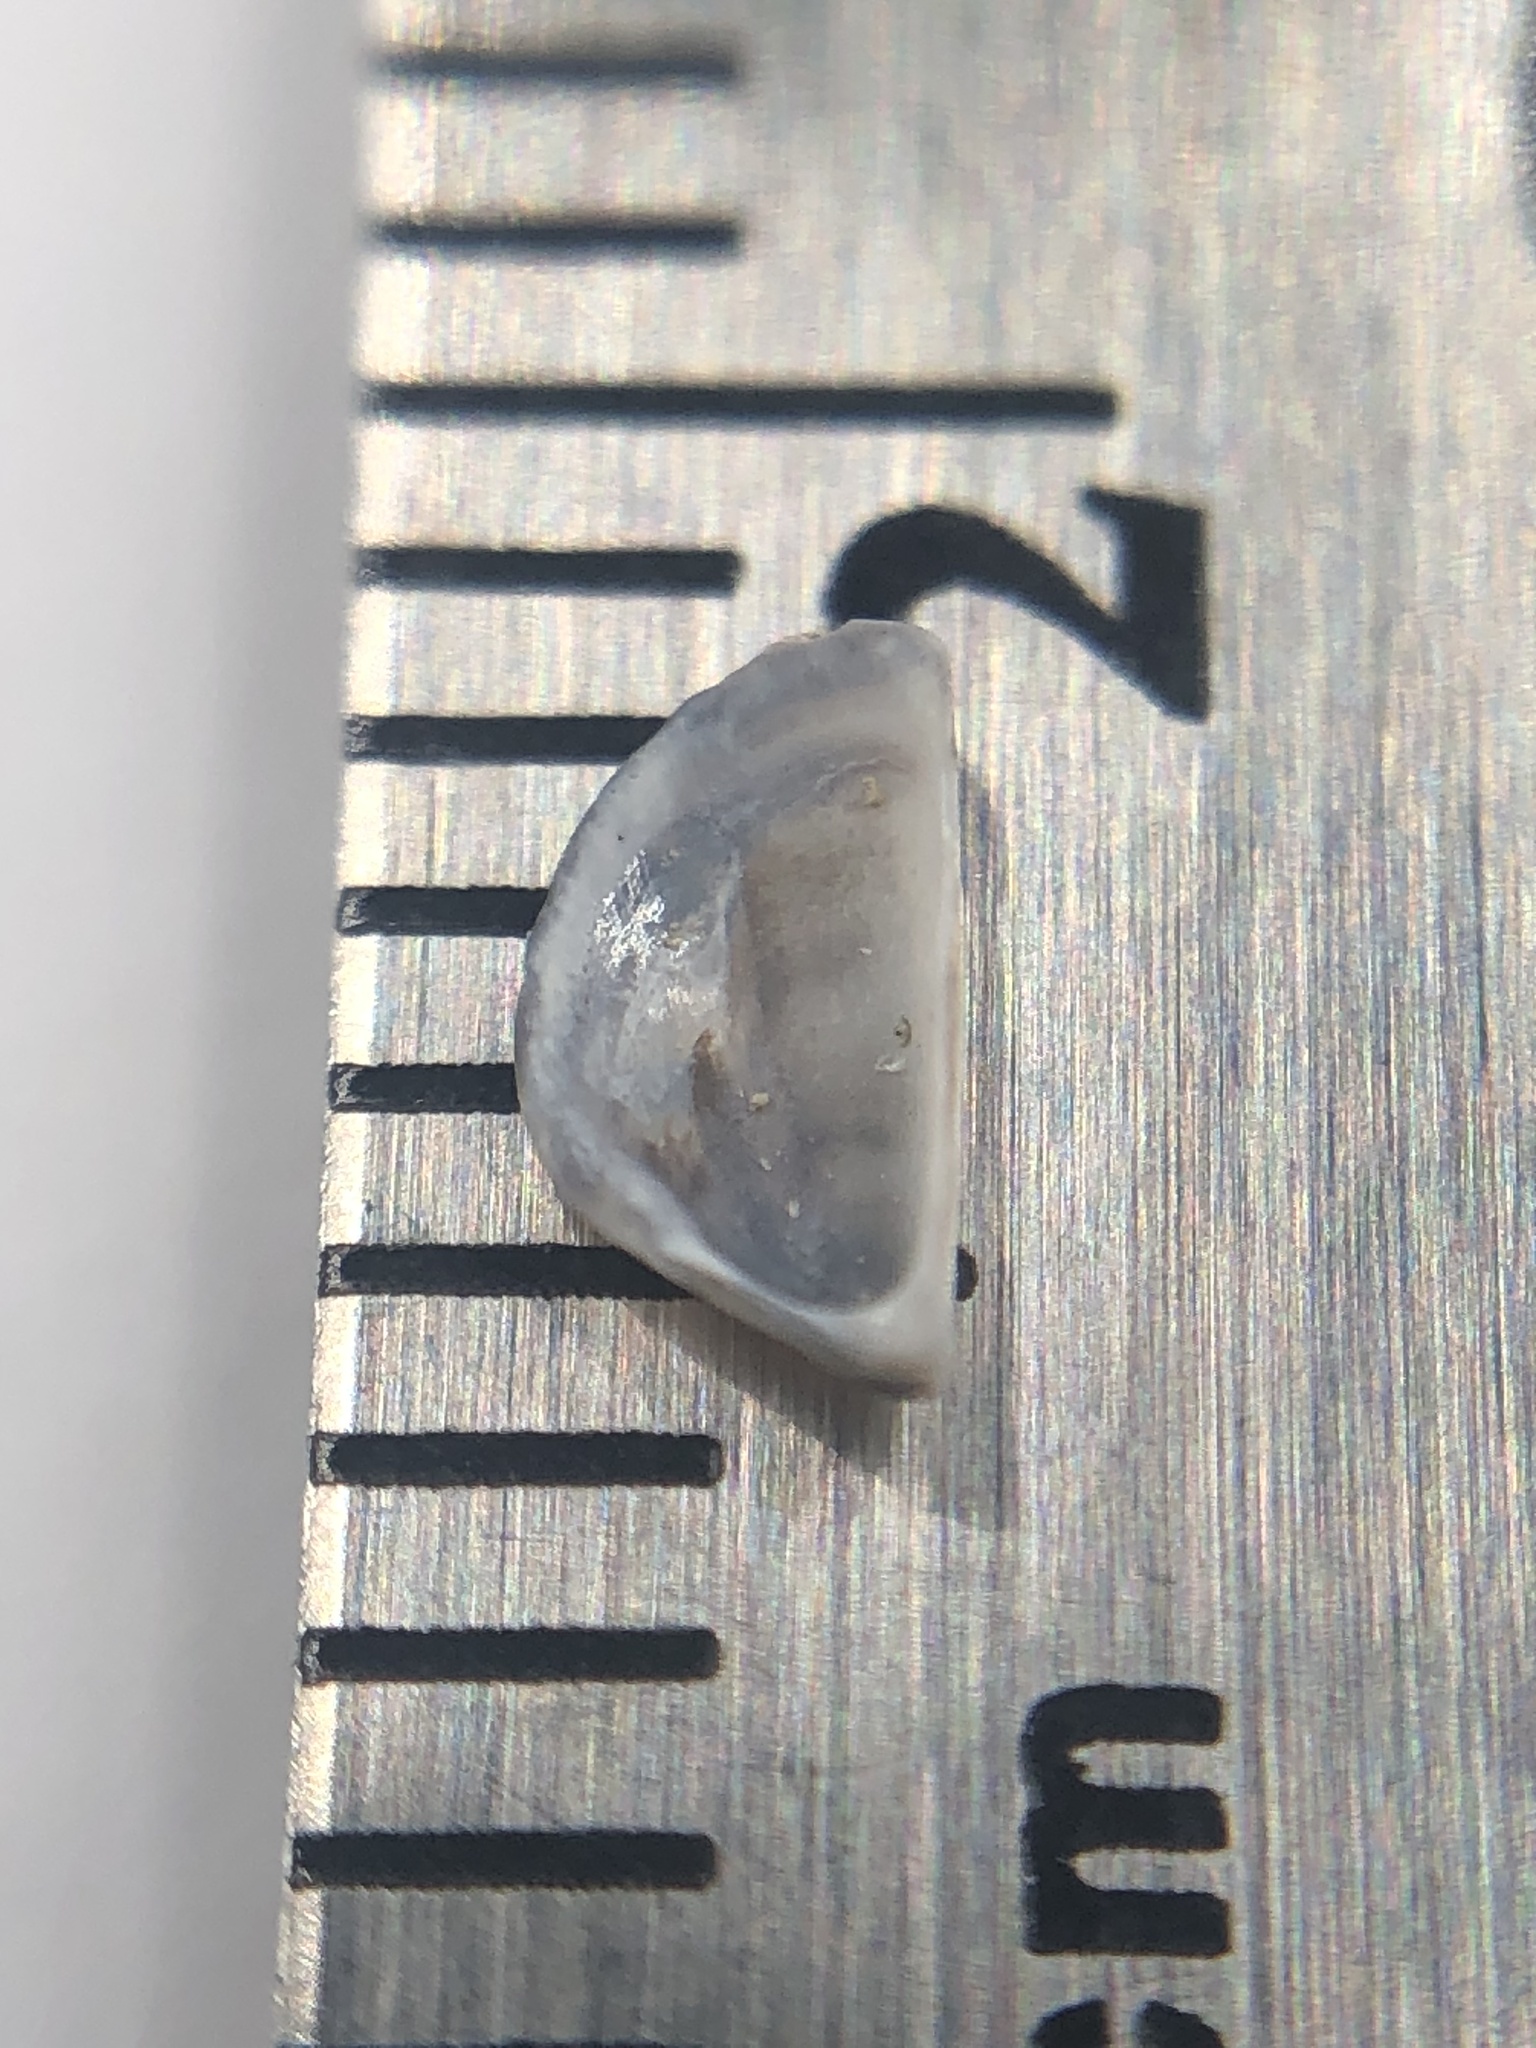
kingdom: Animalia
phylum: Mollusca
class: Bivalvia
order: Myida
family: Dreissenidae
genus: Dreissena
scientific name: Dreissena polymorpha
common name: Zebra mussel
